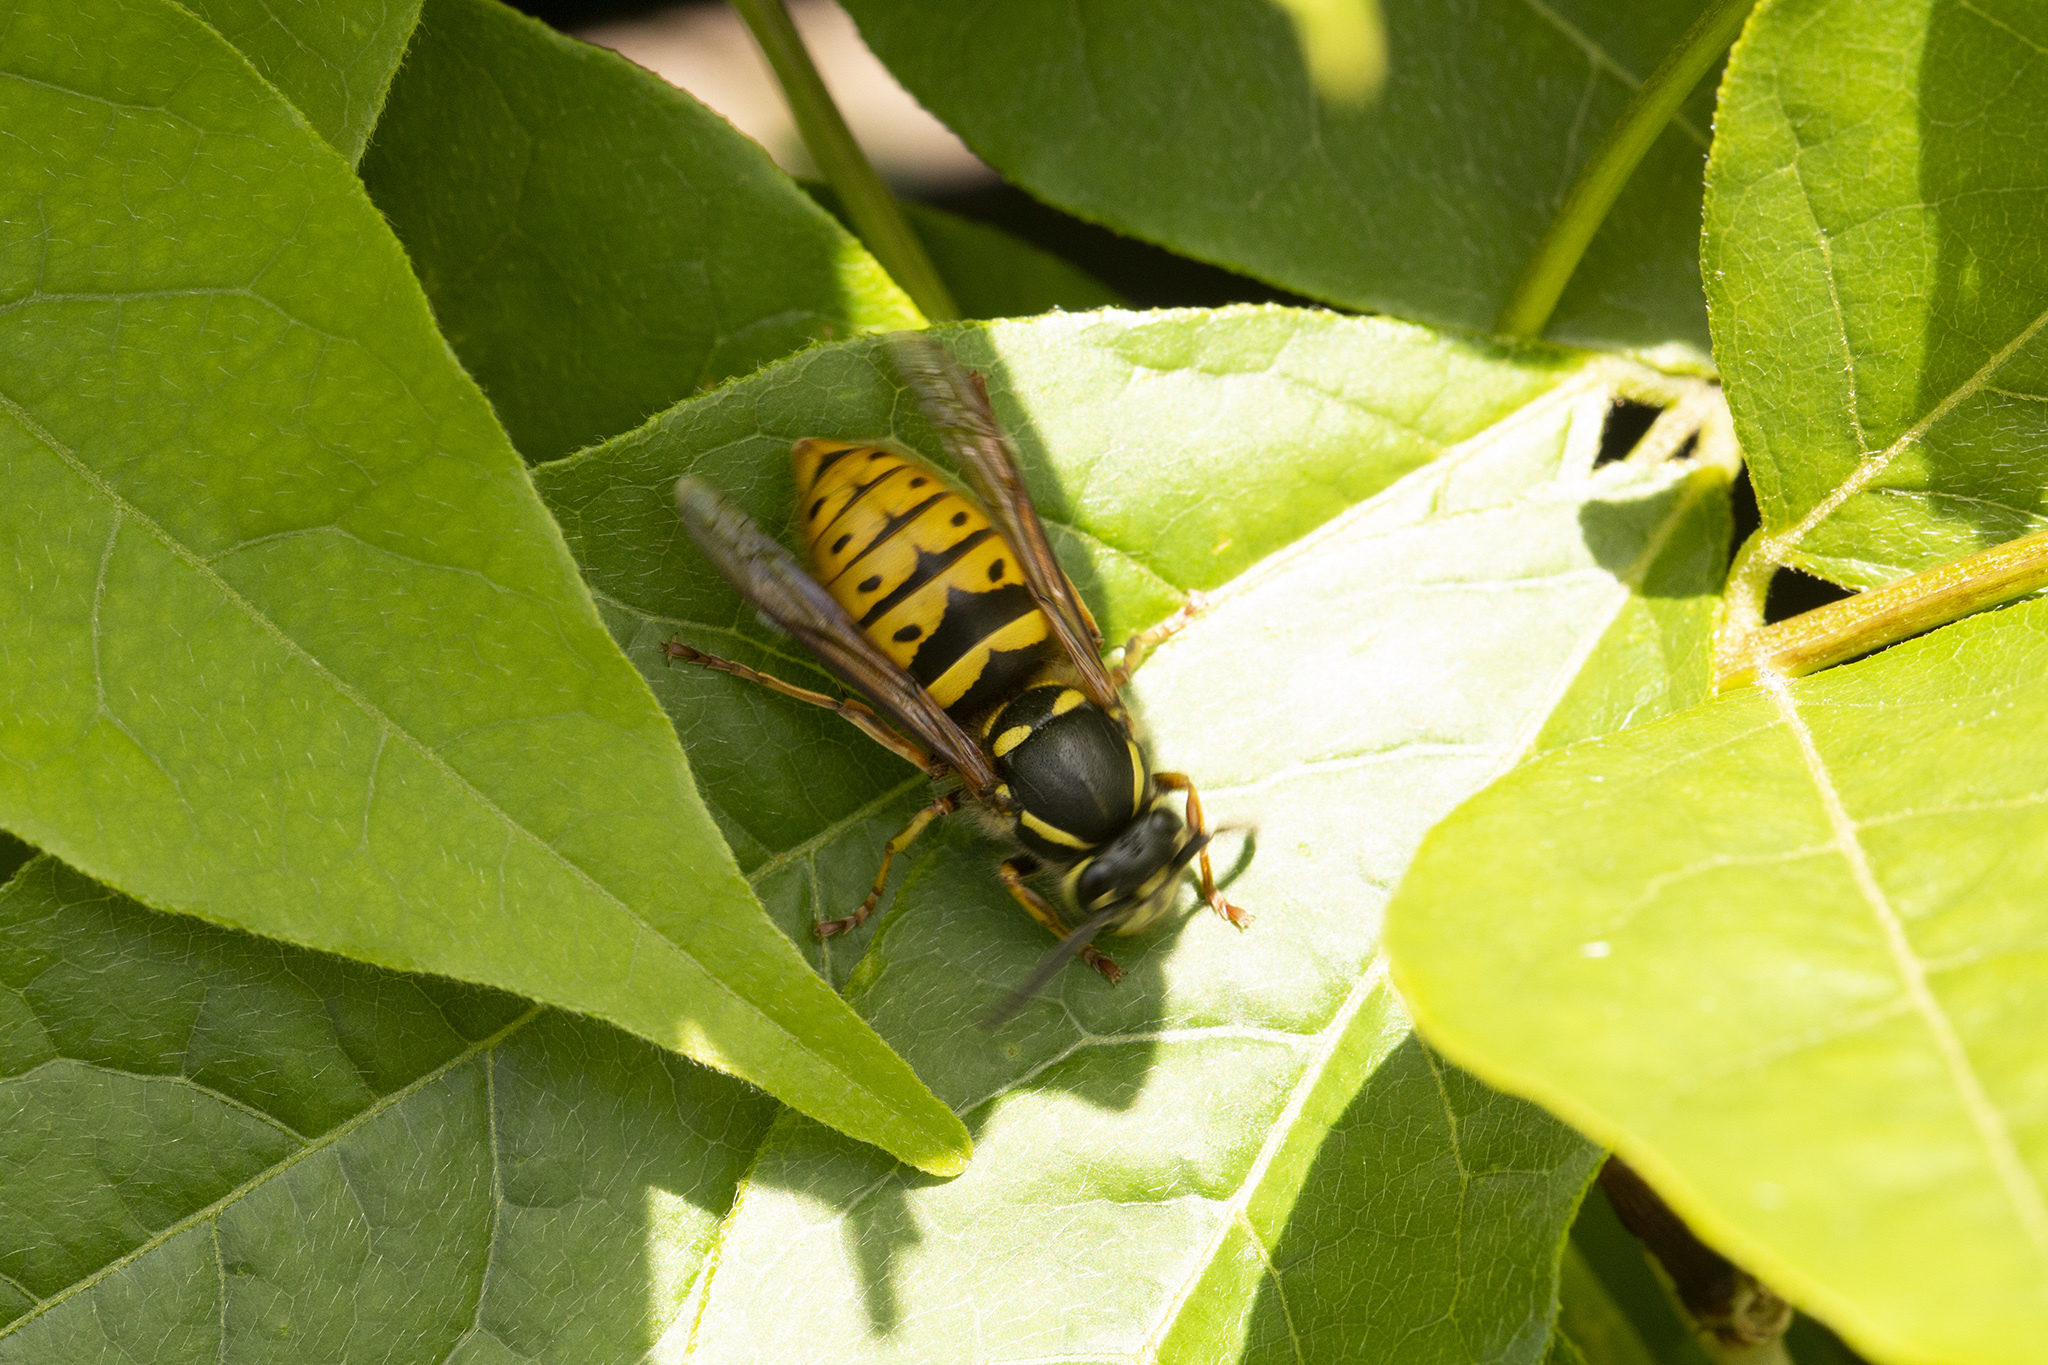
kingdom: Animalia
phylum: Arthropoda
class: Insecta
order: Hymenoptera
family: Vespidae
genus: Vespula
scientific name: Vespula vulgaris
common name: Common wasp
